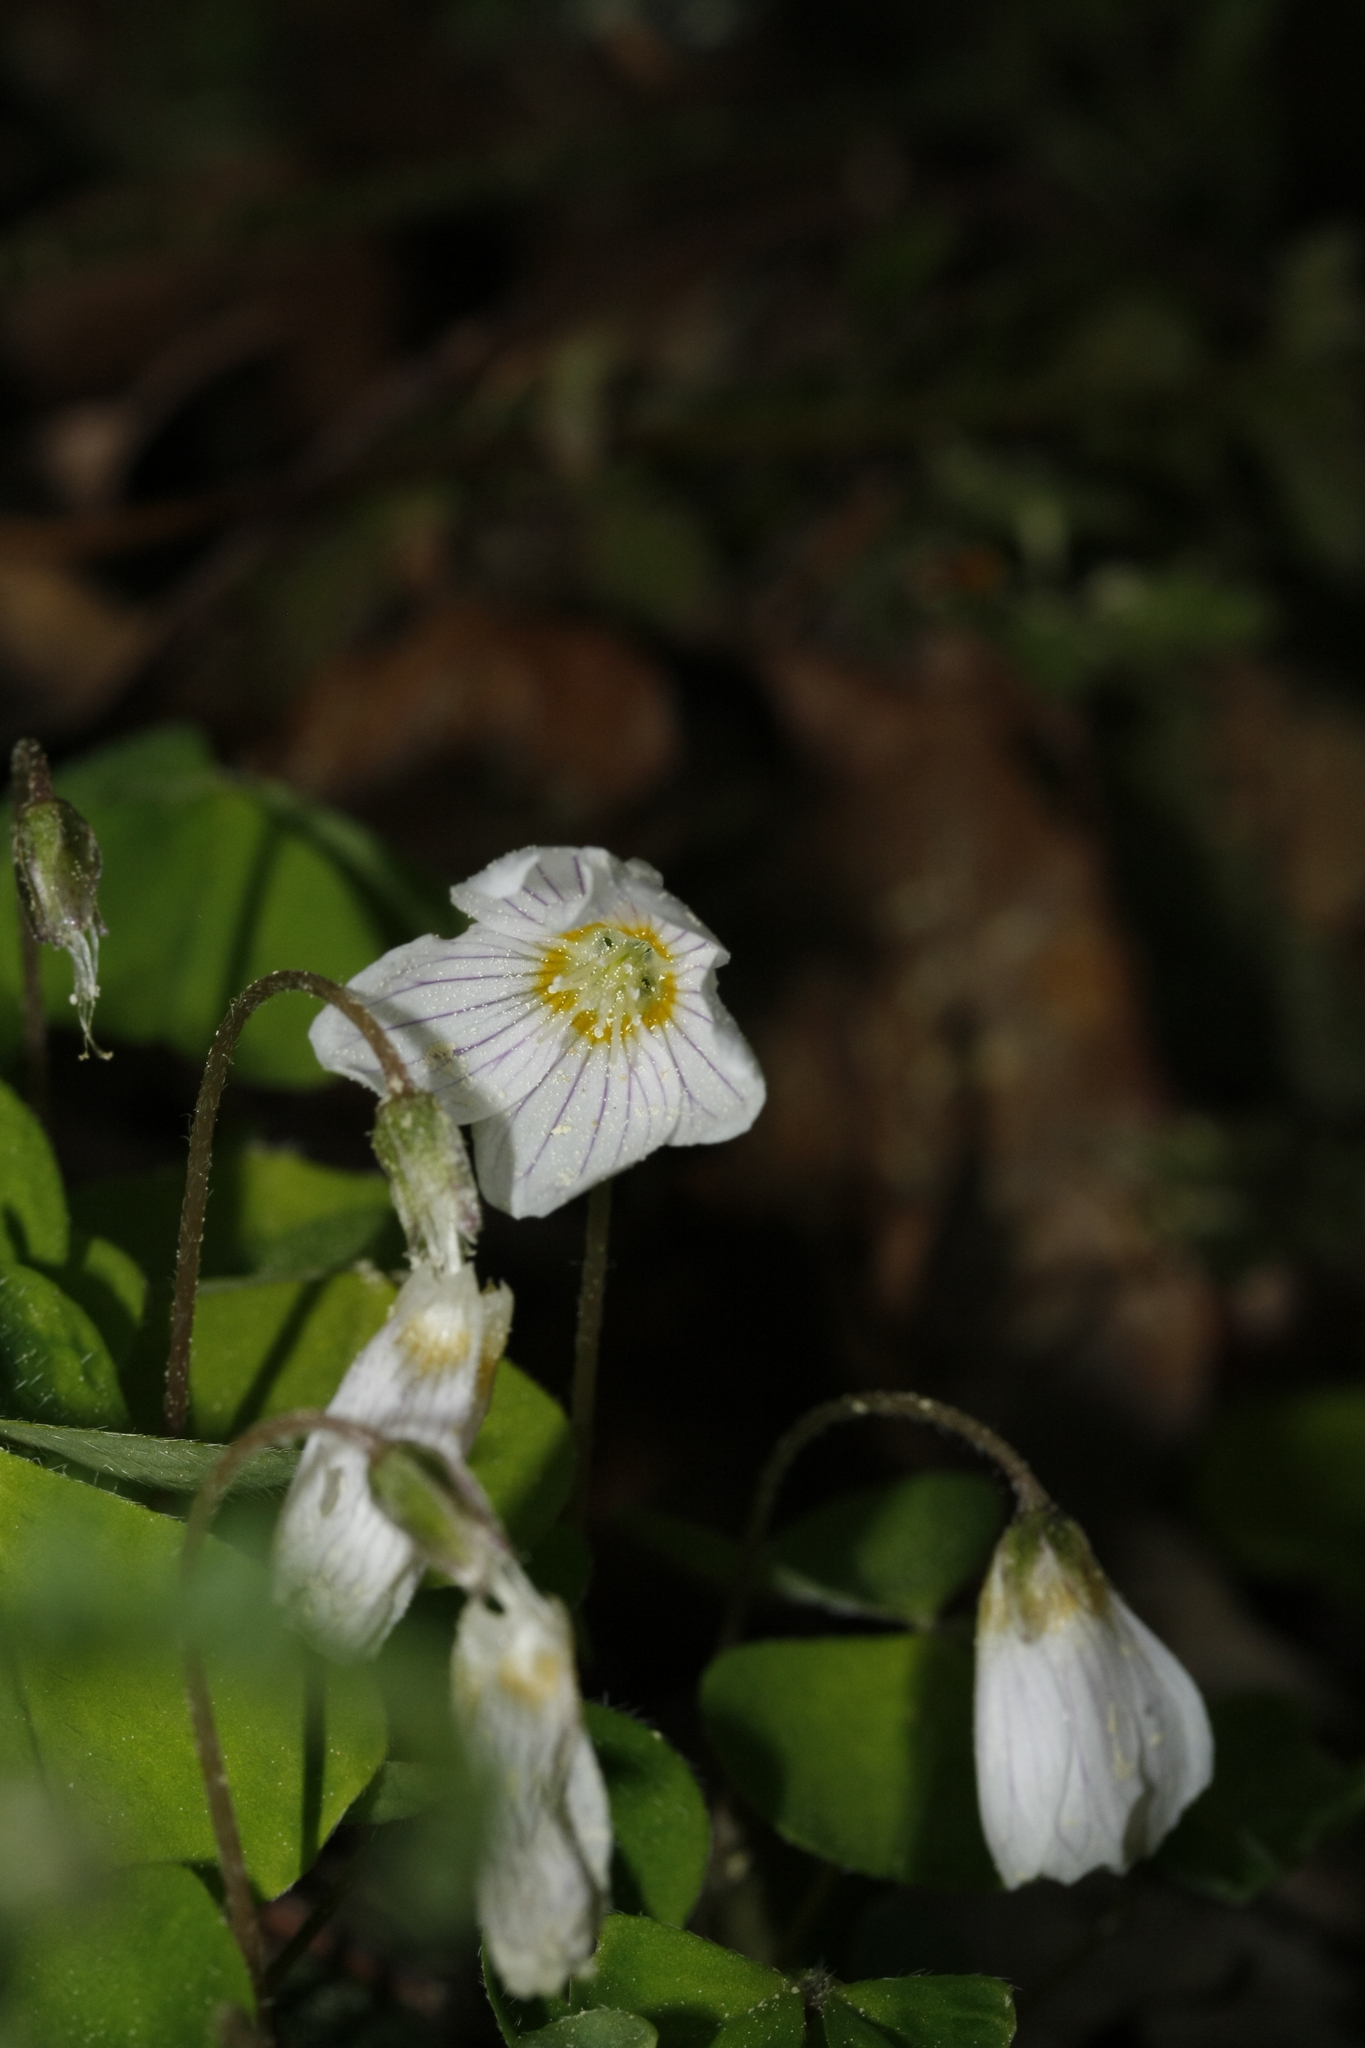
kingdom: Plantae
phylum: Tracheophyta
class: Magnoliopsida
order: Oxalidales
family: Oxalidaceae
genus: Oxalis
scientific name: Oxalis acetosella
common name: Wood-sorrel
